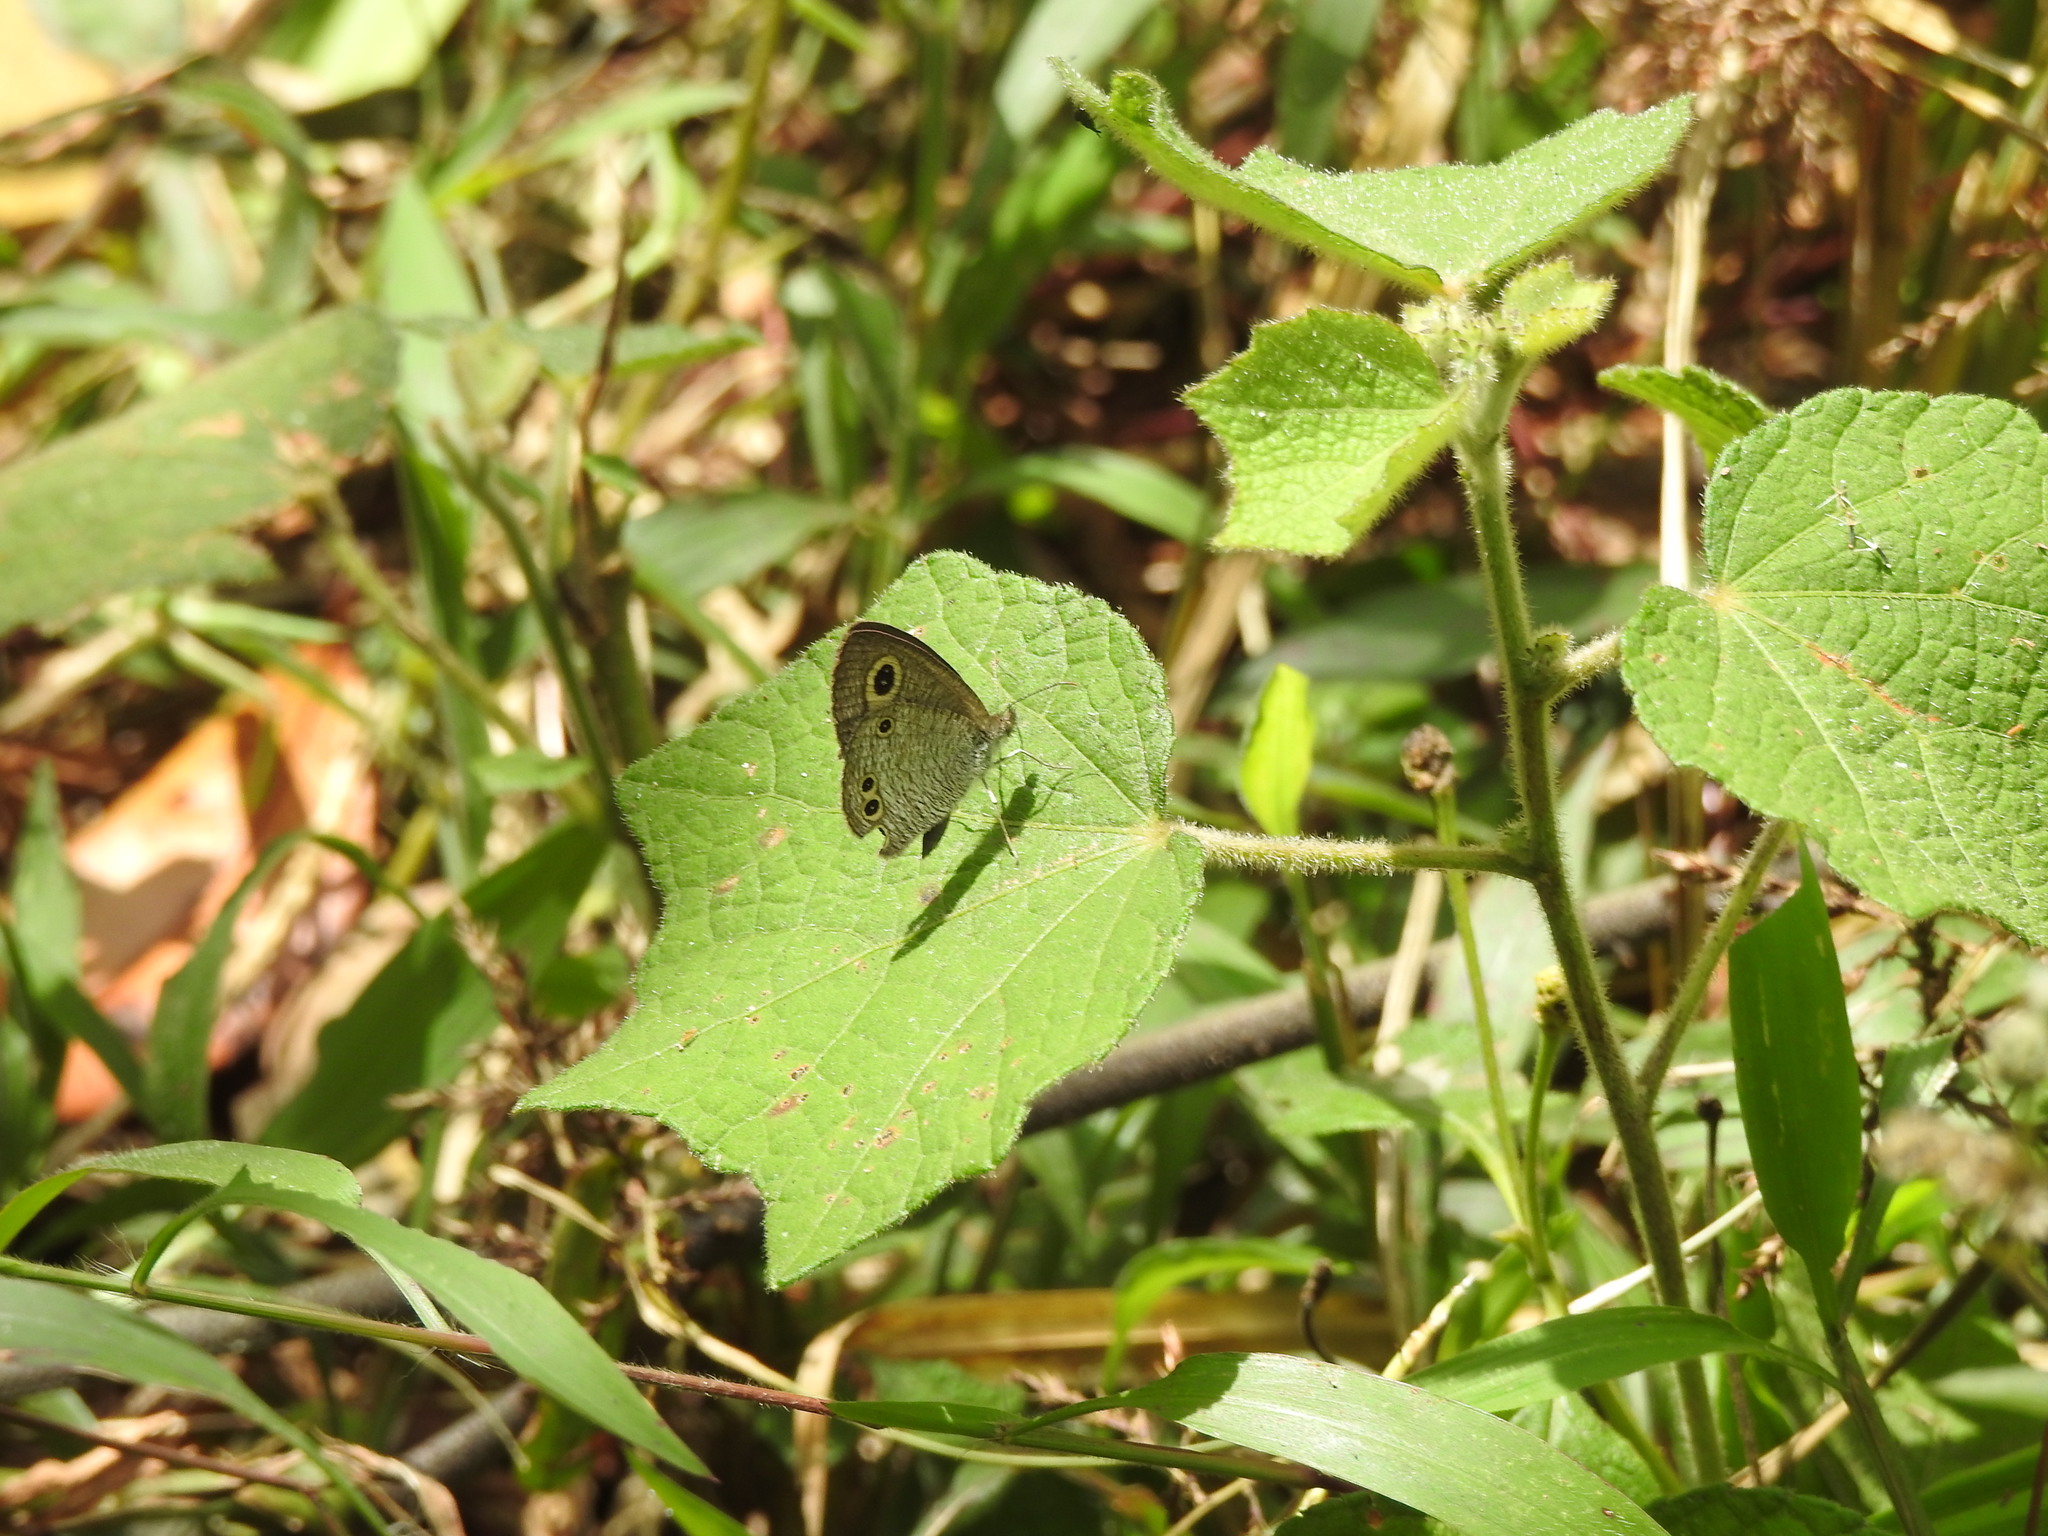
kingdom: Animalia
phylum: Arthropoda
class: Insecta
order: Lepidoptera
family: Nymphalidae
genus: Ypthima
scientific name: Ypthima huebneri
